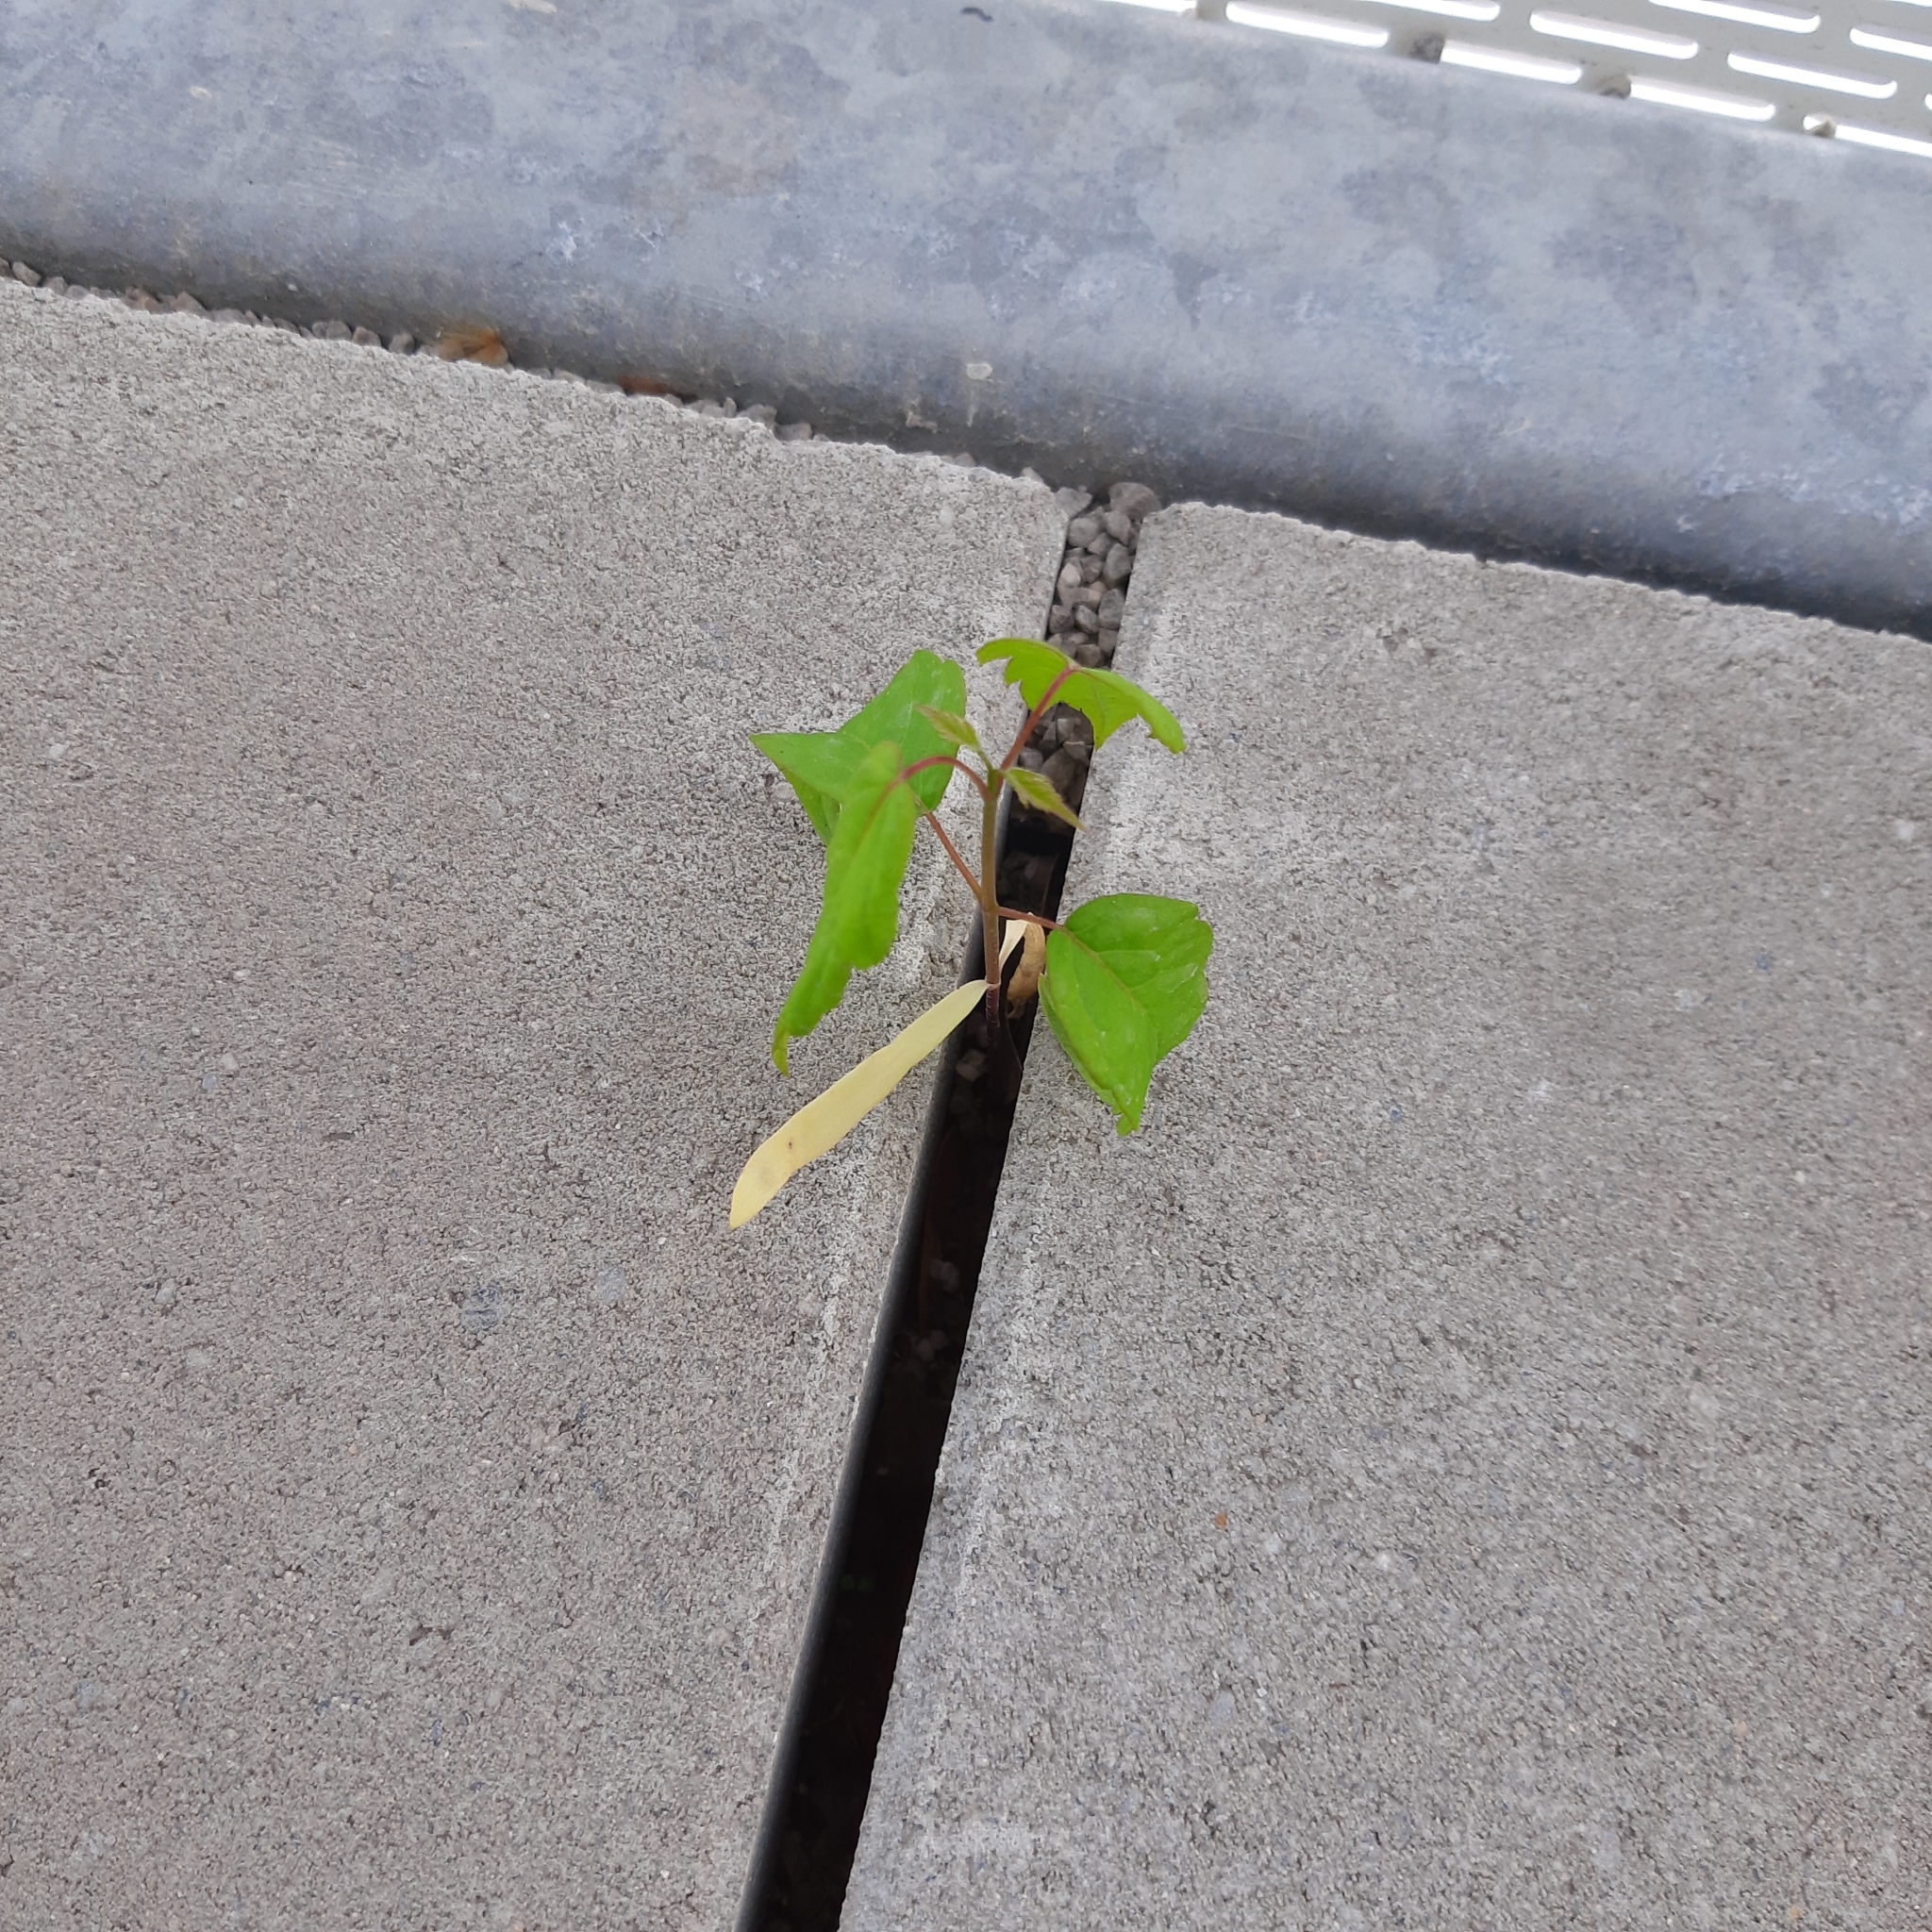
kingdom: Plantae
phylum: Tracheophyta
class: Magnoliopsida
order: Sapindales
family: Sapindaceae
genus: Acer
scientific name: Acer negundo
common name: Ashleaf maple
